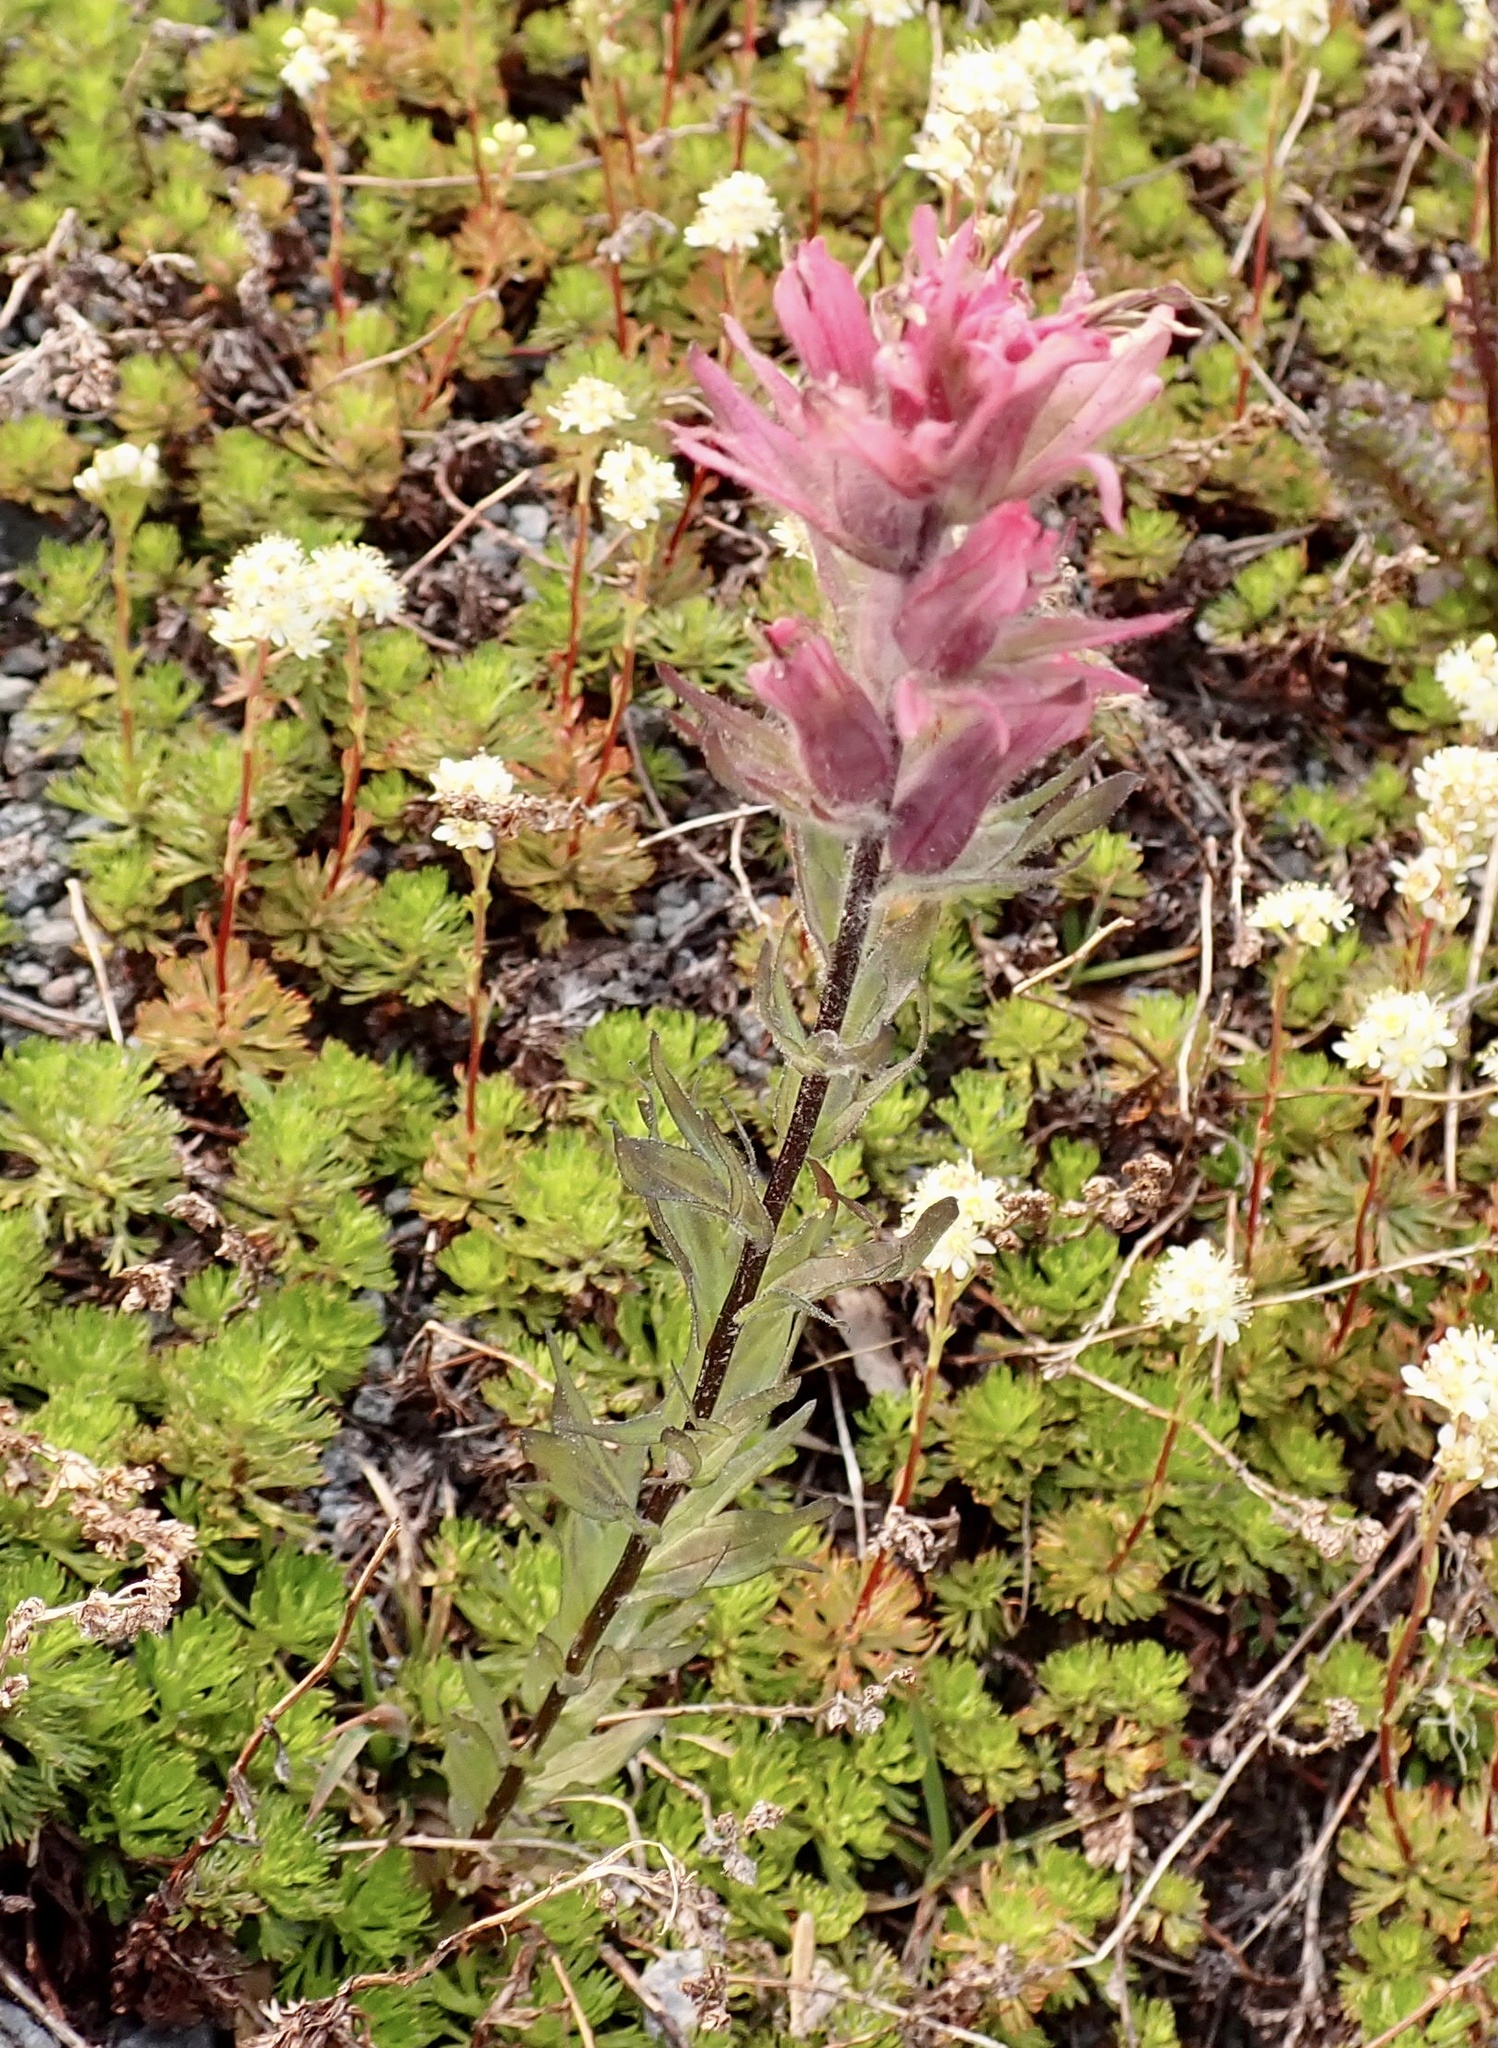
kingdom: Plantae
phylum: Tracheophyta
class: Magnoliopsida
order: Lamiales
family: Orobanchaceae
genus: Castilleja
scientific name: Castilleja parviflora
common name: Mountain paintbrush
